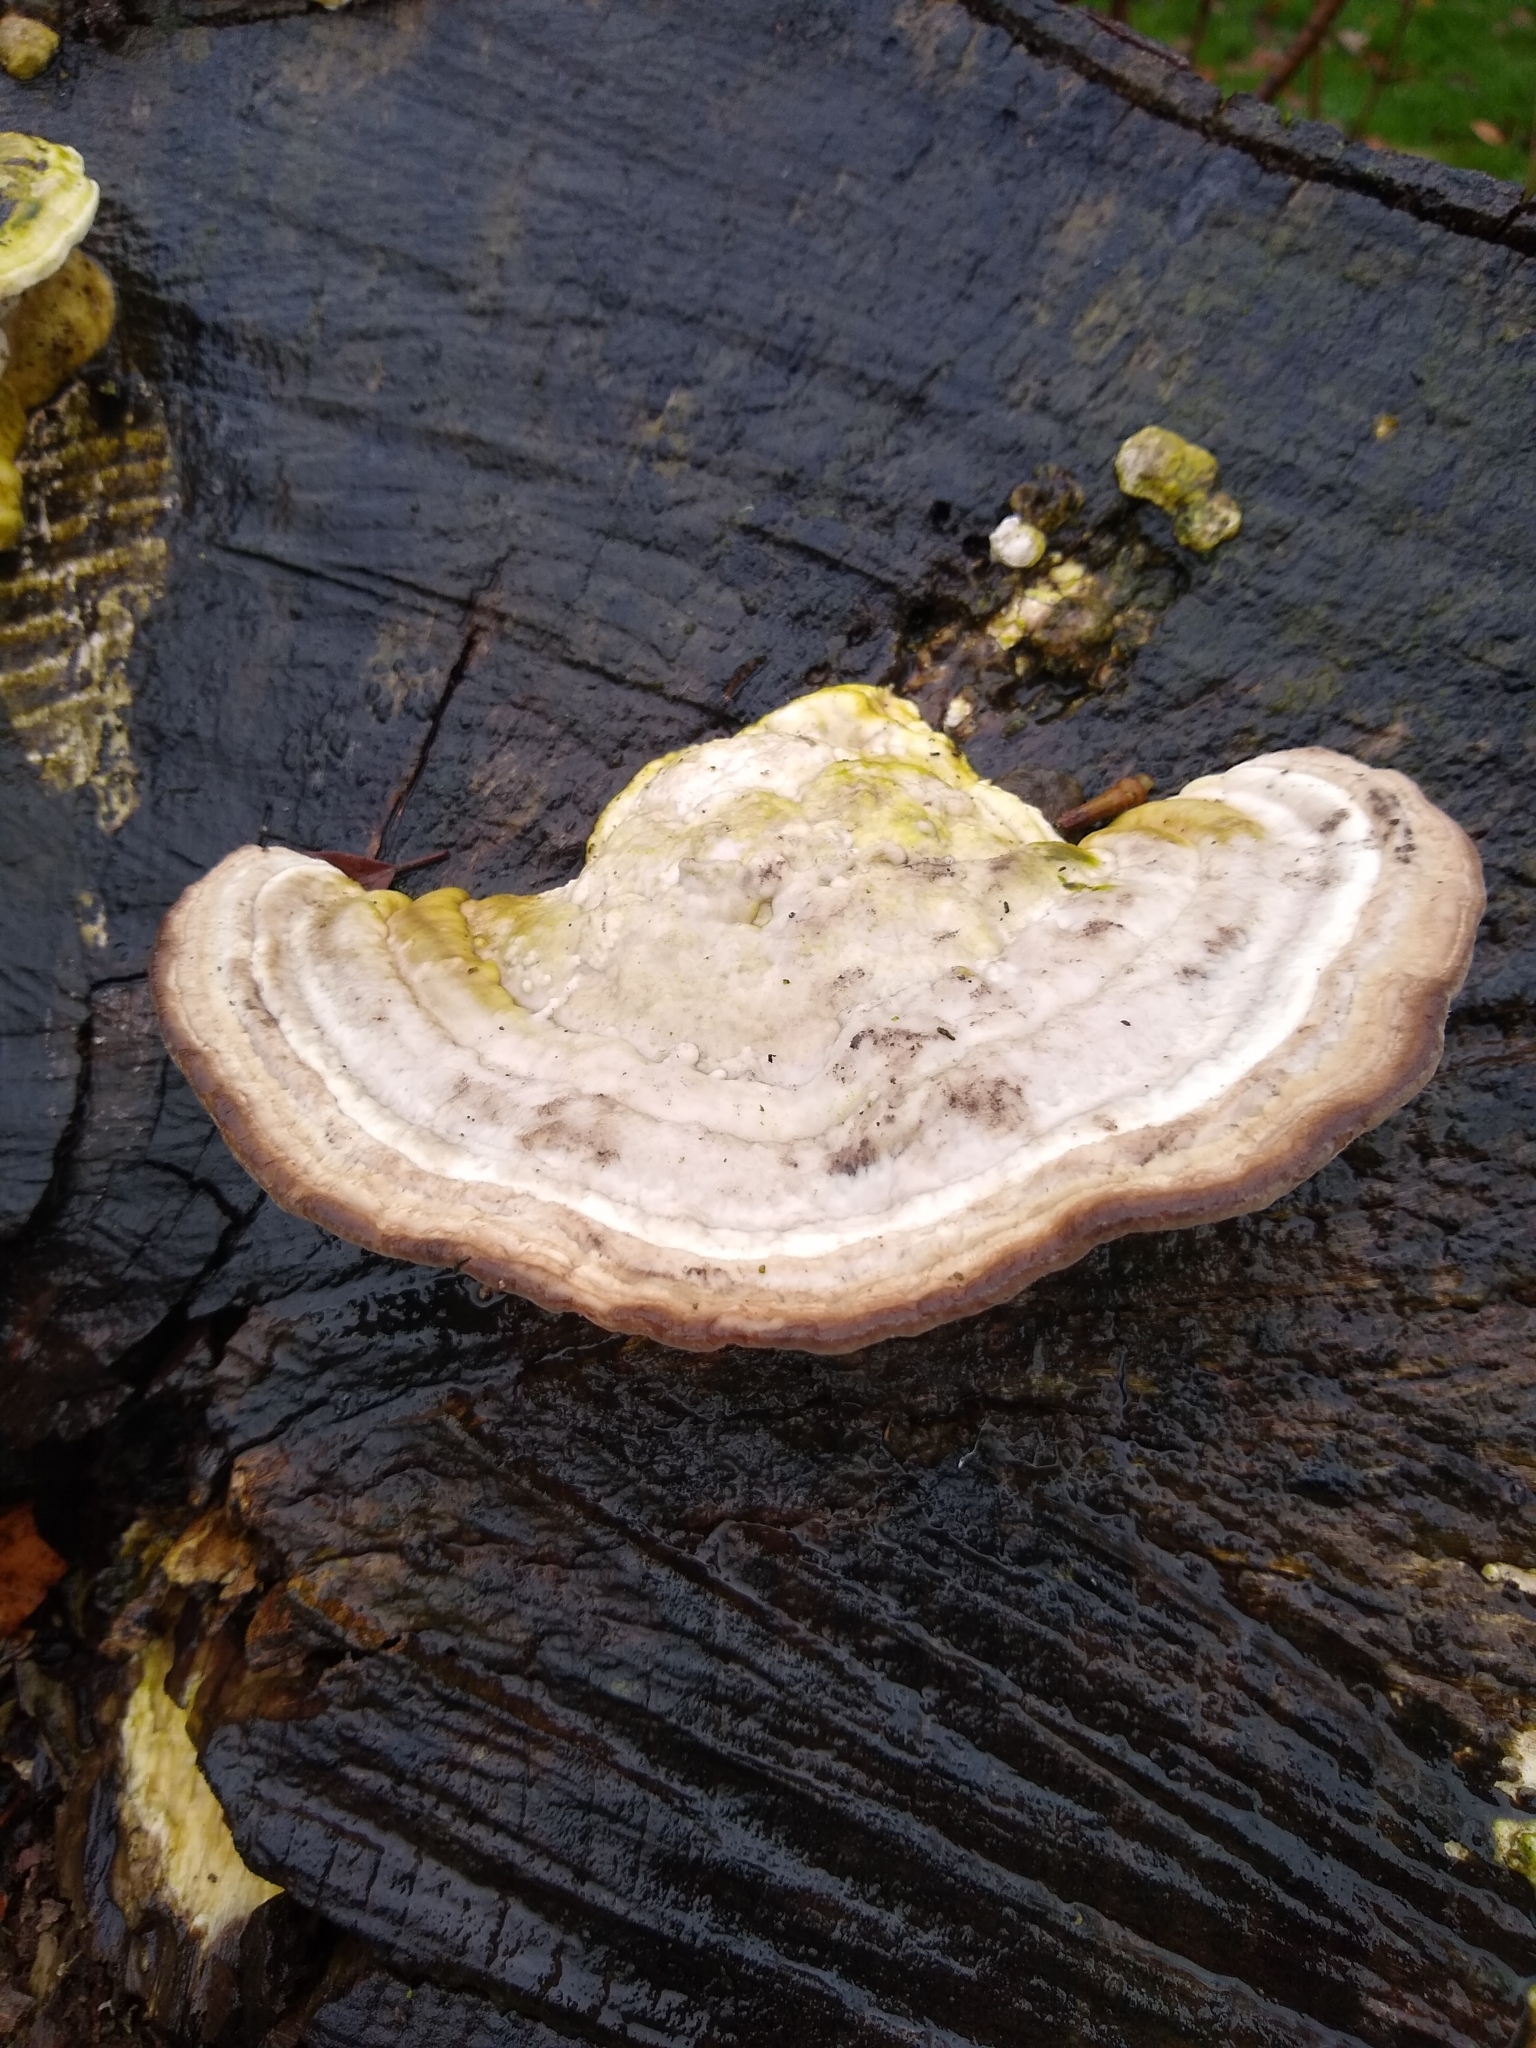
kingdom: Fungi
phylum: Basidiomycota
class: Agaricomycetes
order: Polyporales
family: Polyporaceae
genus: Trametes
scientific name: Trametes gibbosa
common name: Lumpy bracket
